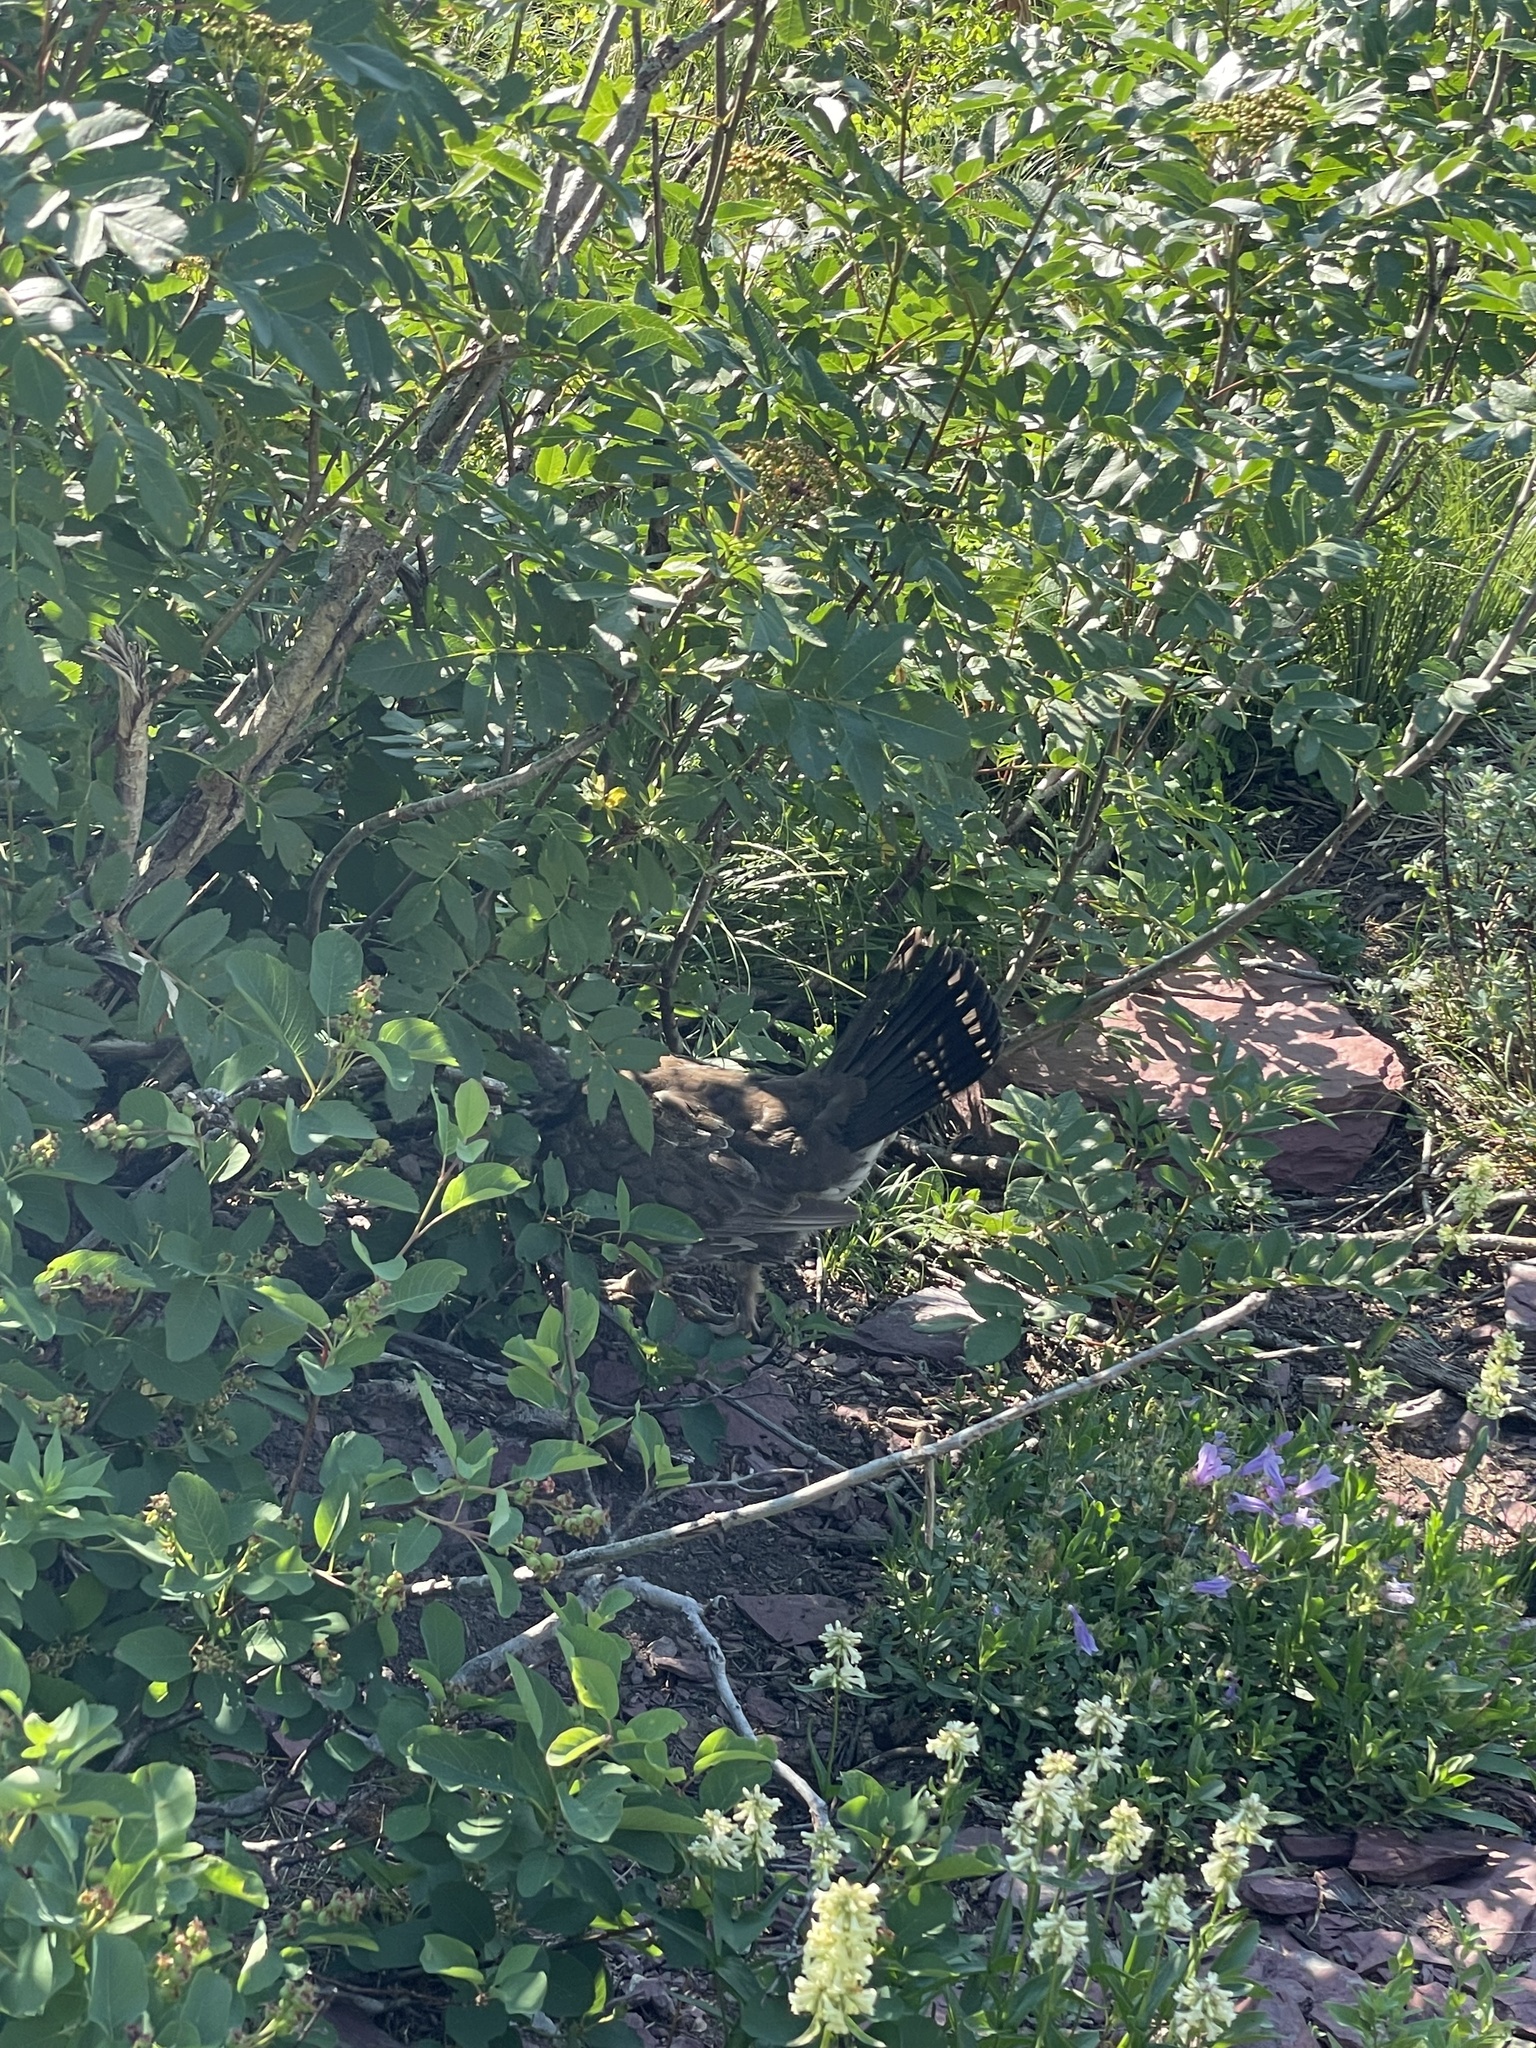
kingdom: Animalia
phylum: Chordata
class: Aves
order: Galliformes
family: Phasianidae
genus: Dendragapus
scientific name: Dendragapus obscurus
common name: Dusky grouse
